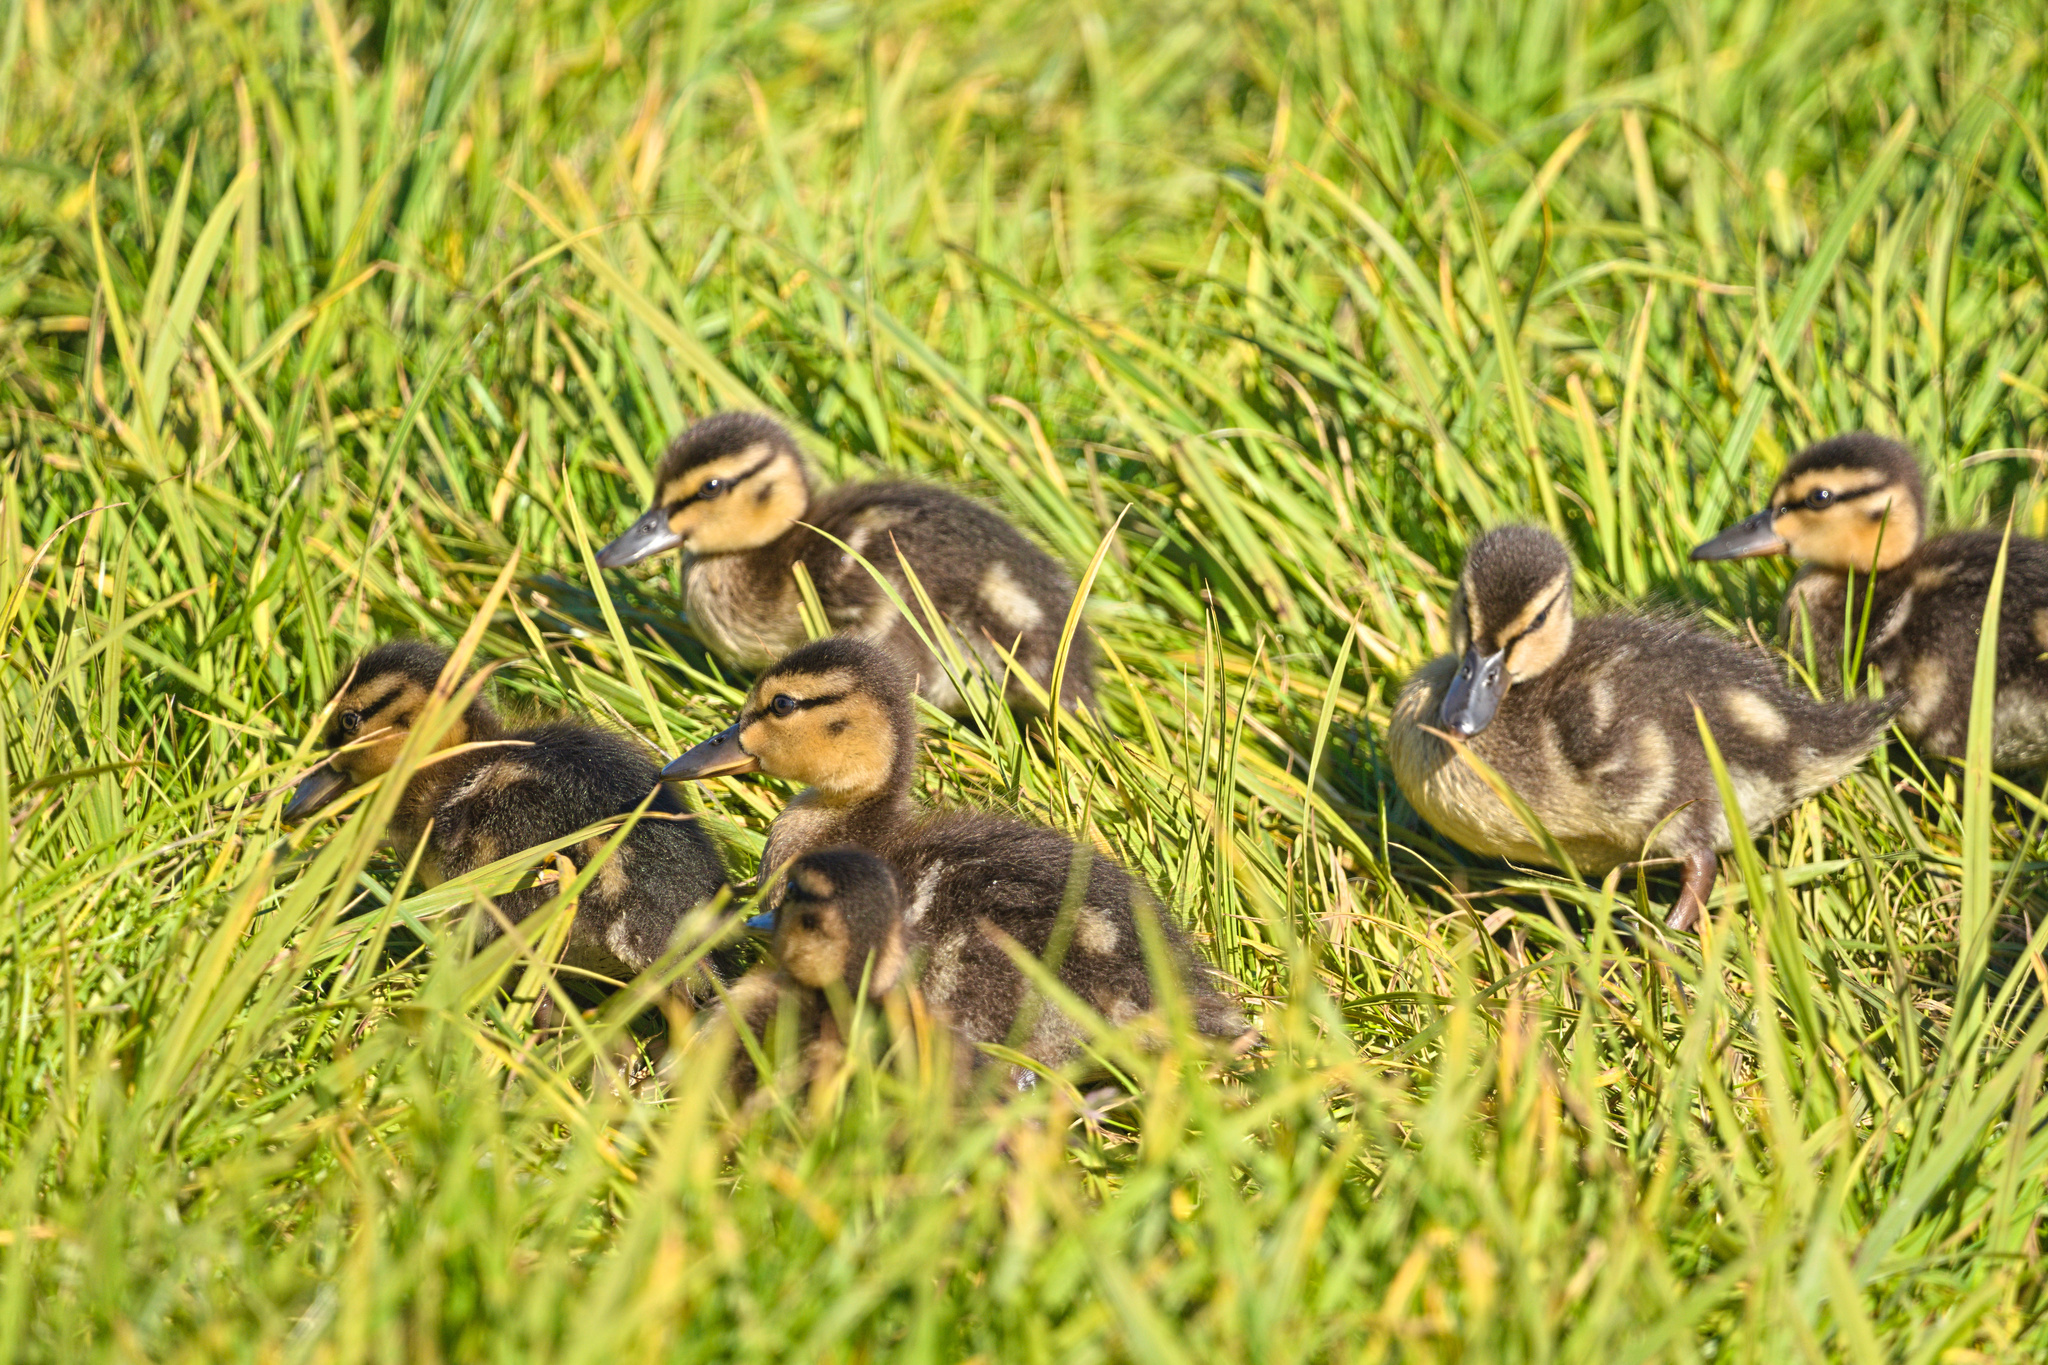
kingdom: Animalia
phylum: Chordata
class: Aves
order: Anseriformes
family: Anatidae
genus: Anas
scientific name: Anas platyrhynchos
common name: Mallard
